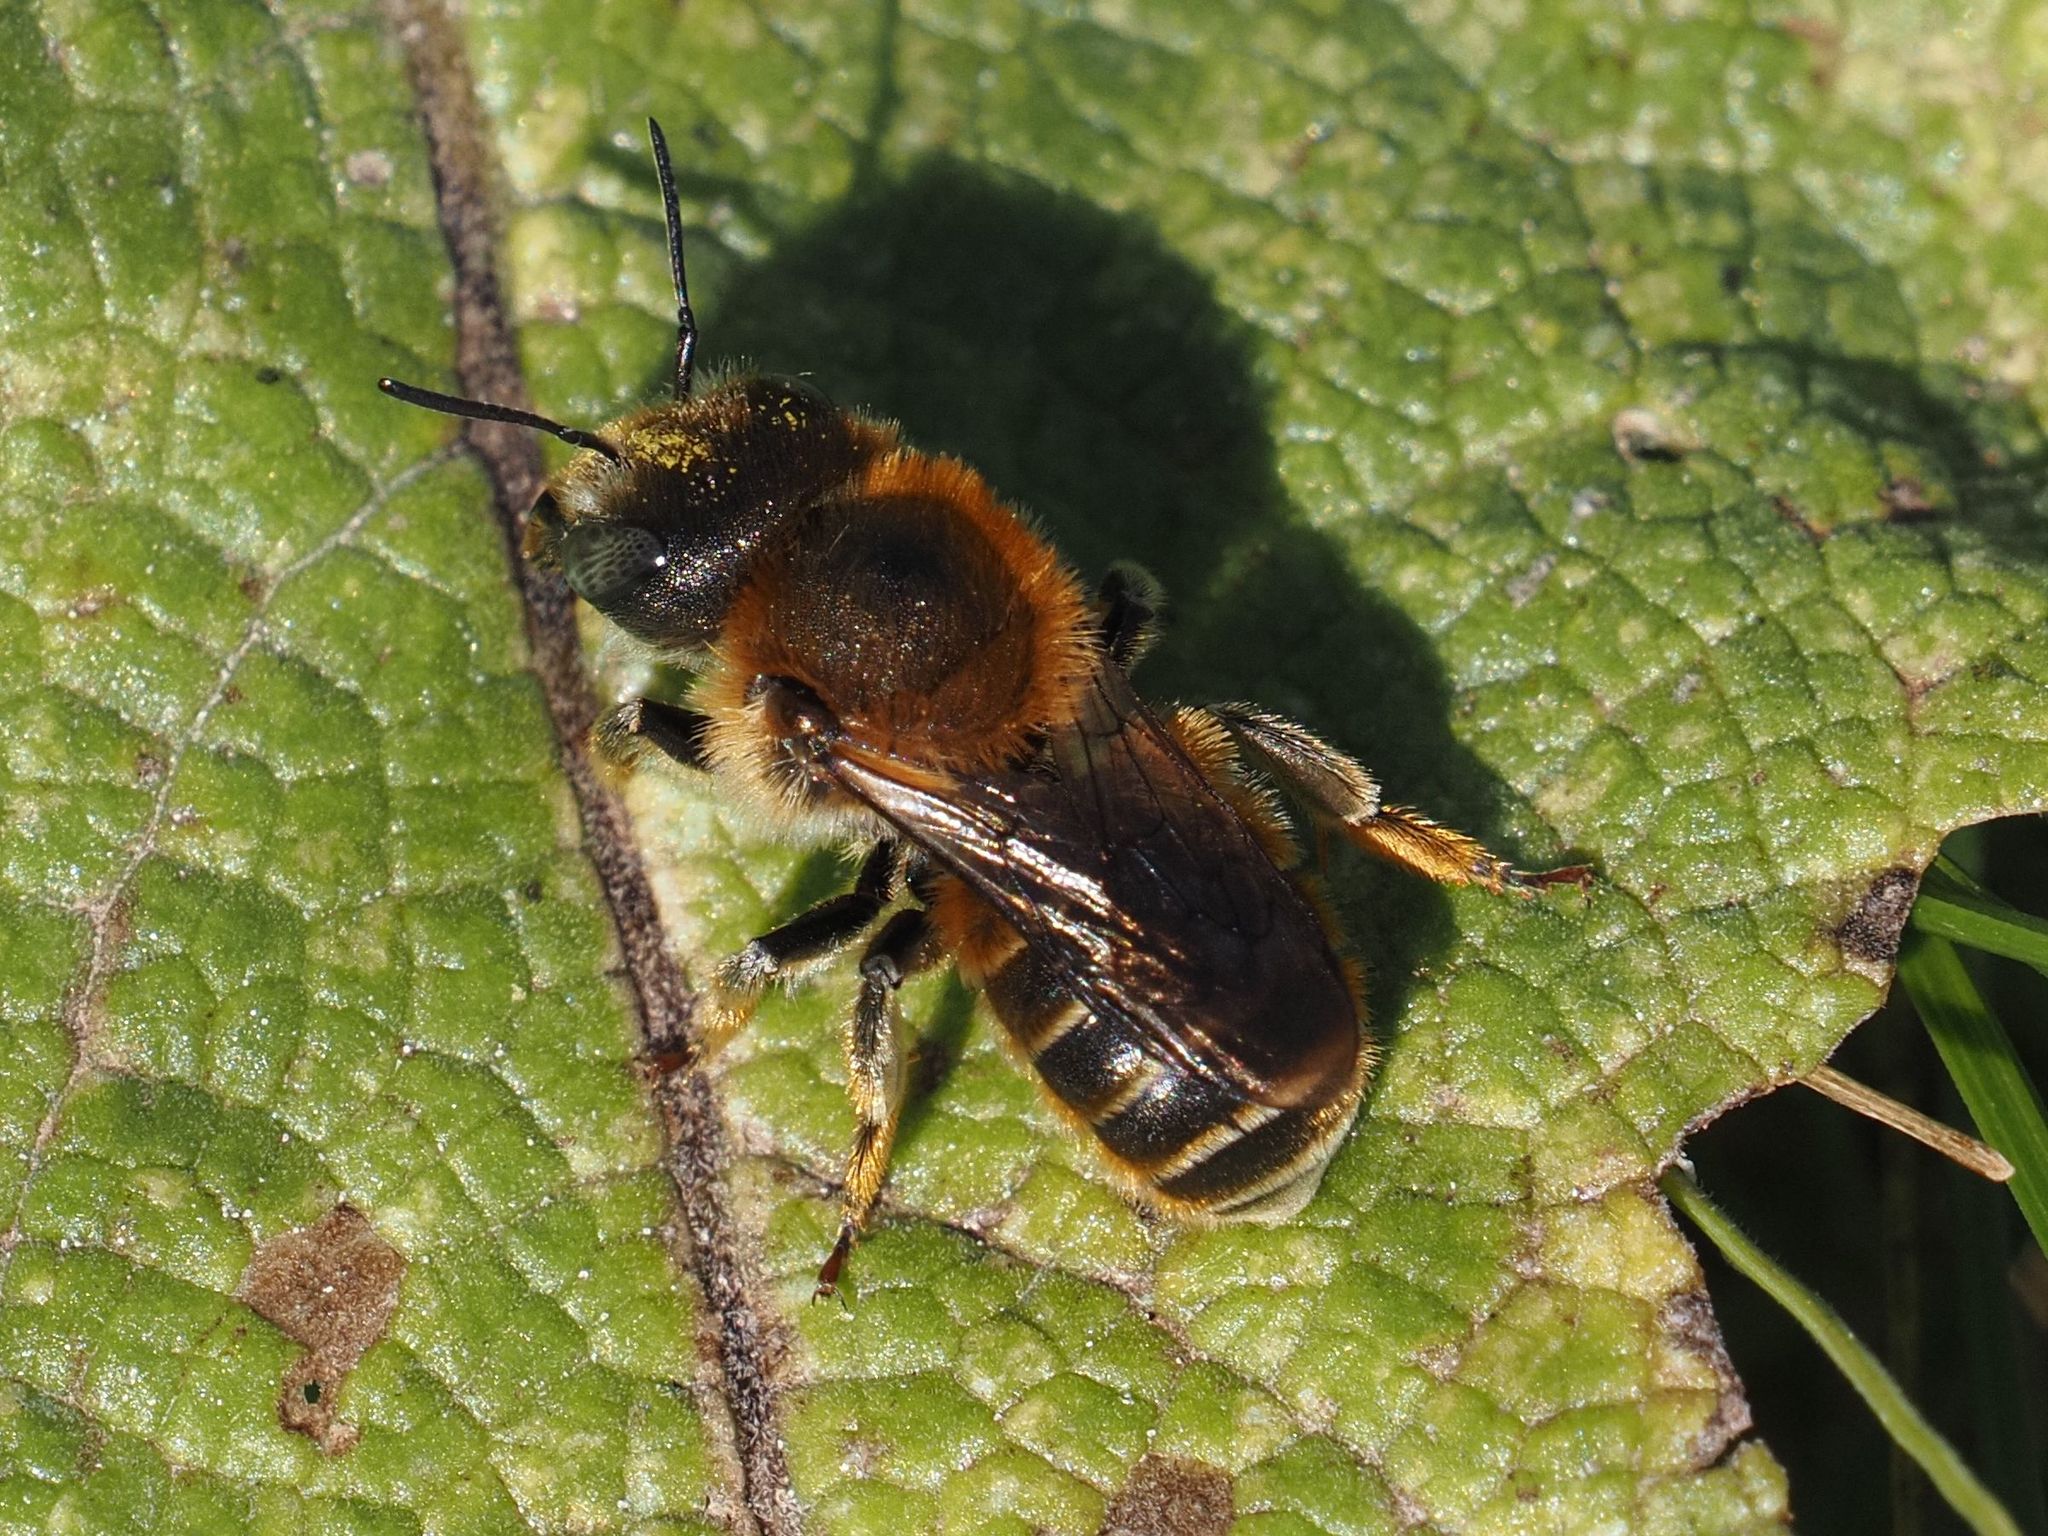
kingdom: Animalia
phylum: Arthropoda
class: Insecta
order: Hymenoptera
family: Megachilidae
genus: Osmia
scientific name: Osmia aurulenta
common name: Gold-fringed mason bee
